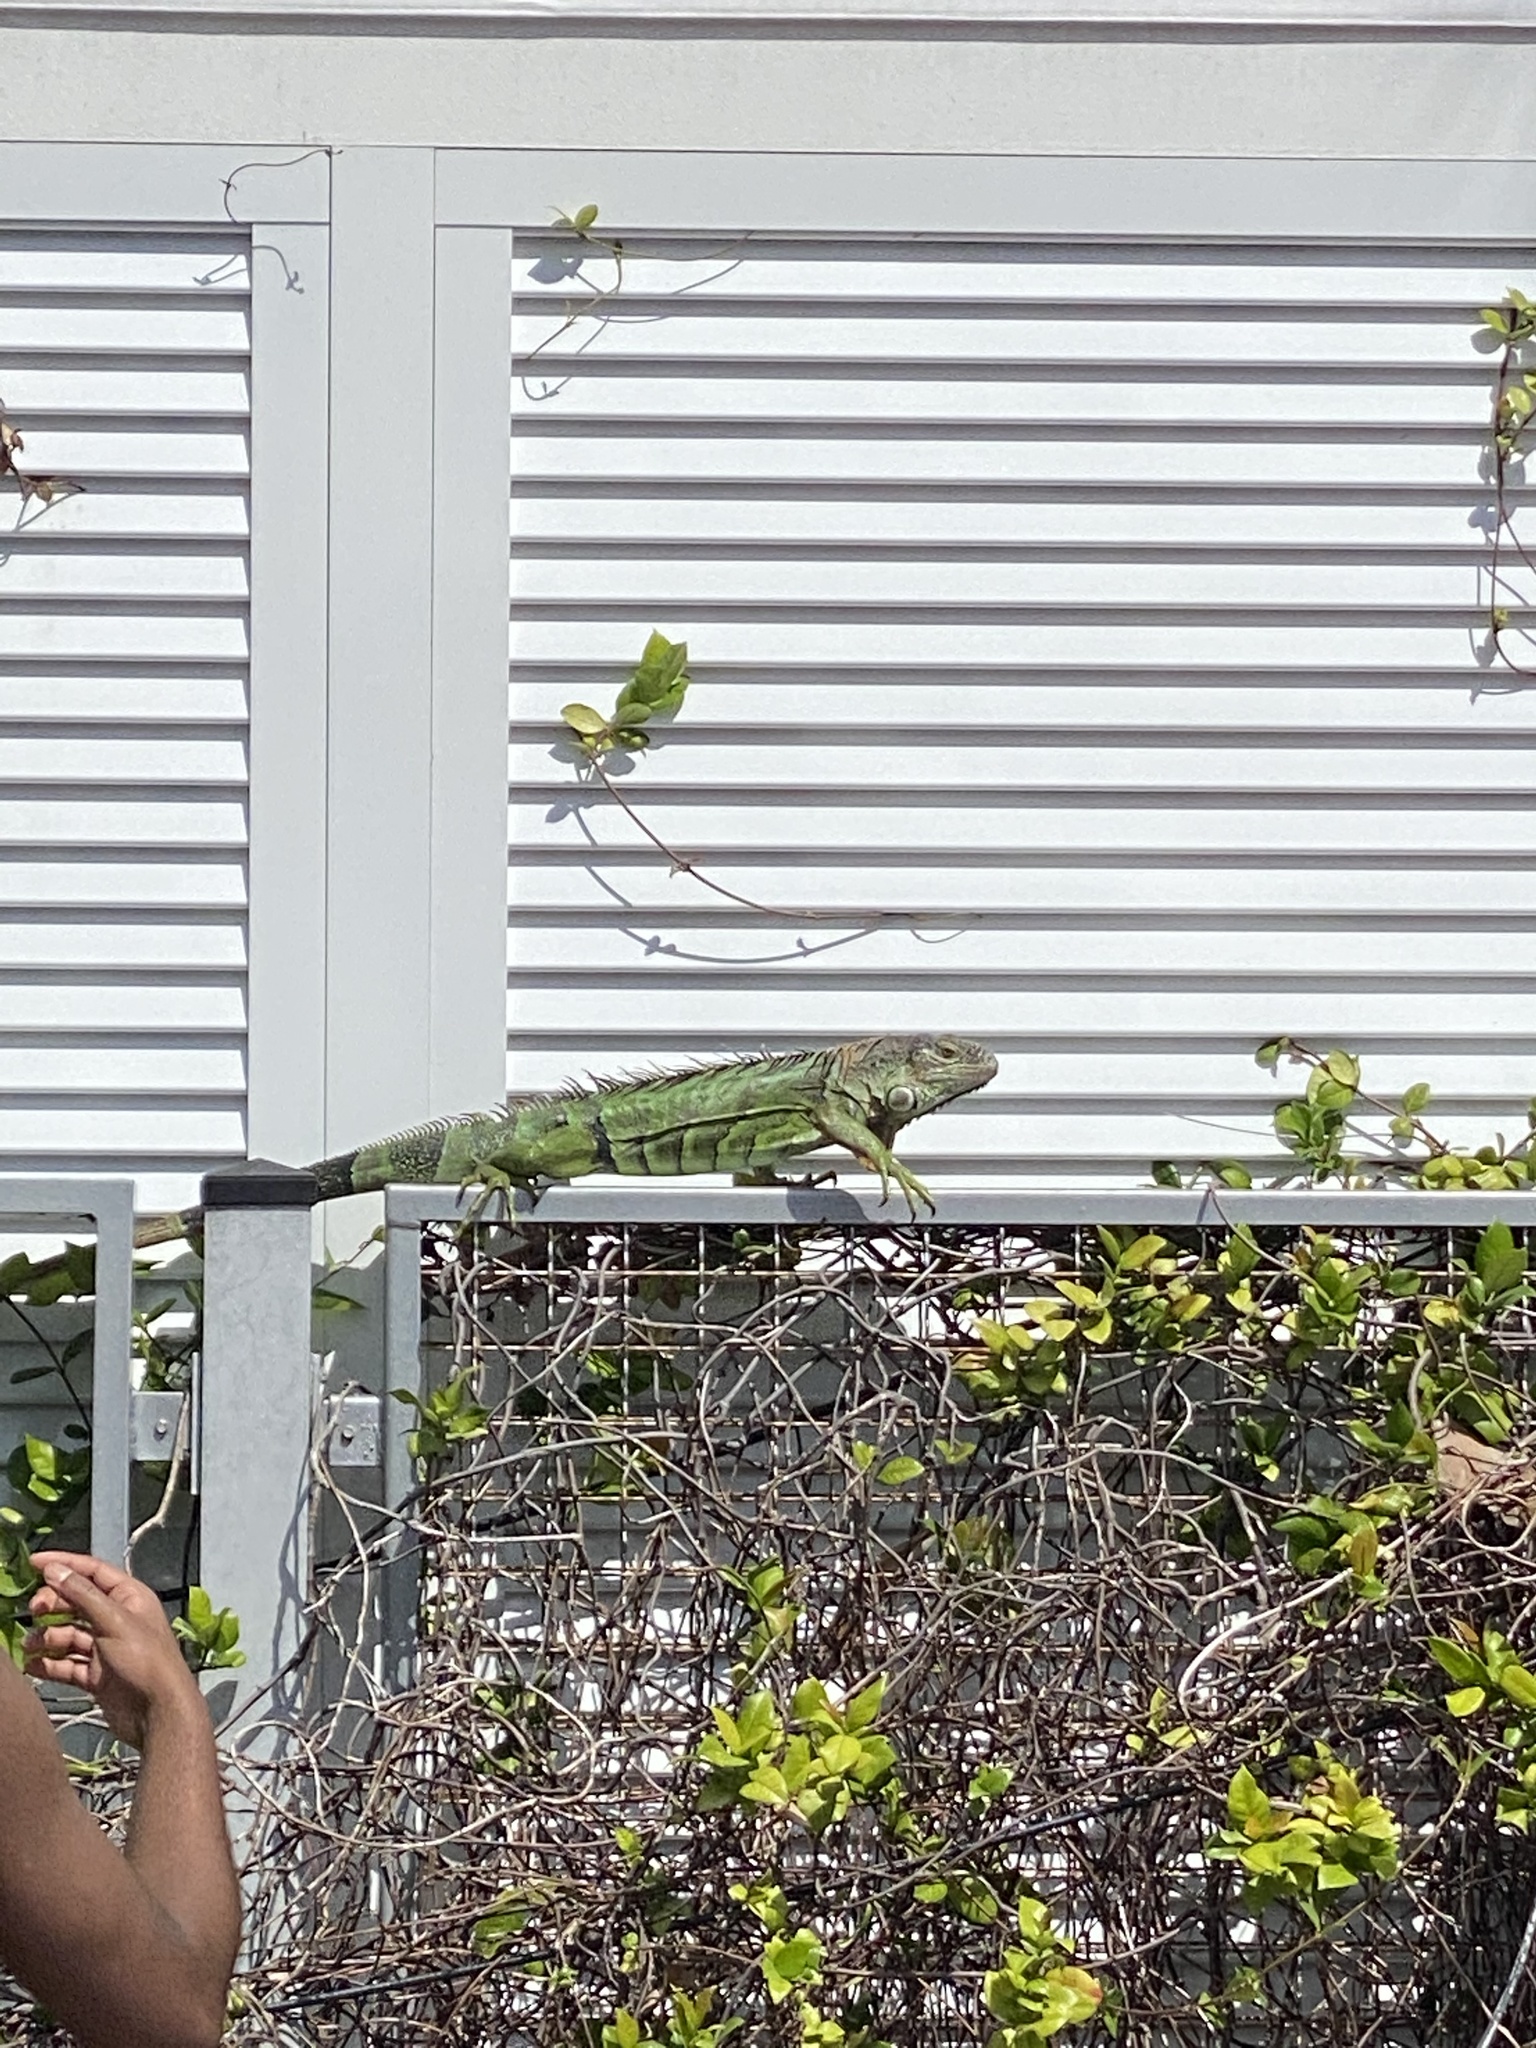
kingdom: Animalia
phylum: Chordata
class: Squamata
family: Iguanidae
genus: Iguana
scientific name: Iguana iguana
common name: Green iguana
